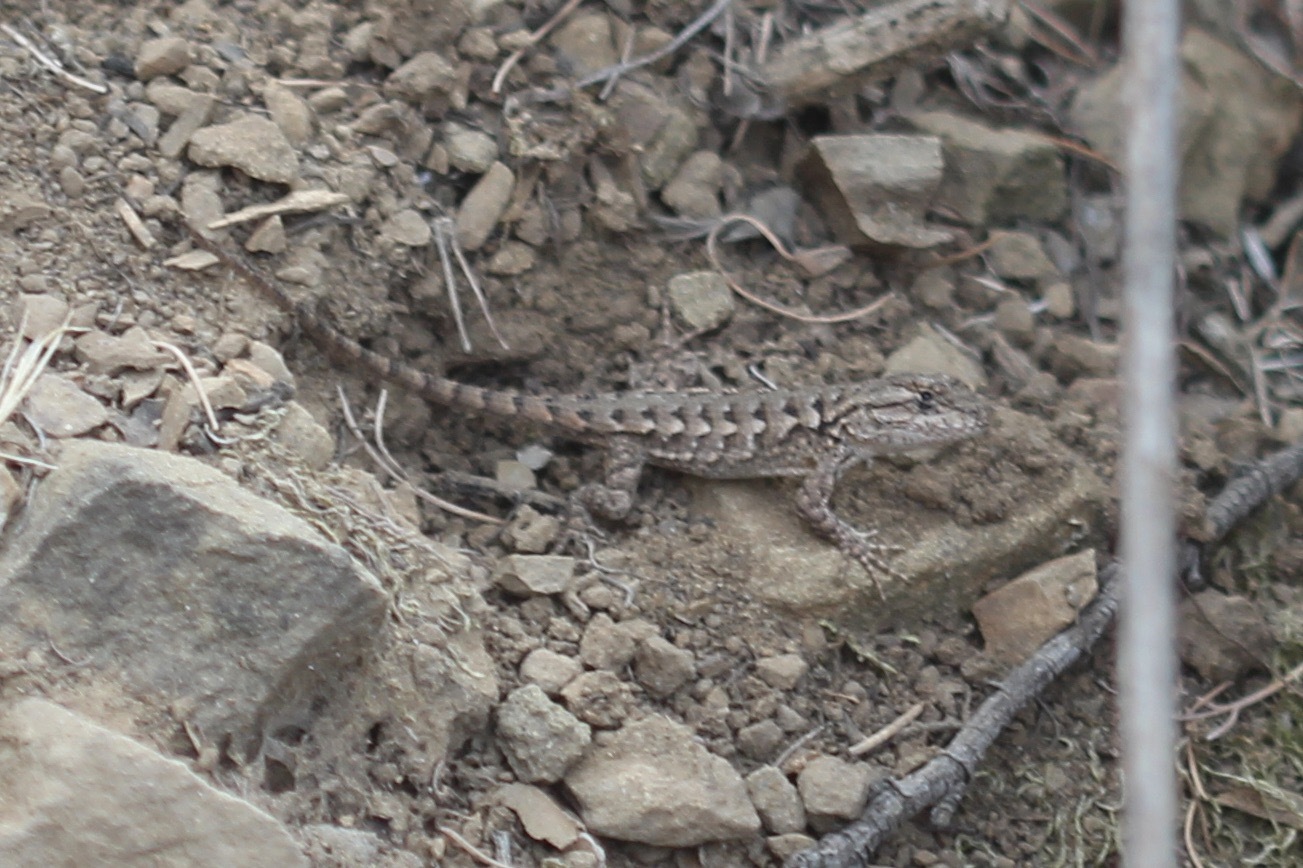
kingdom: Animalia
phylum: Chordata
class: Squamata
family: Phrynosomatidae
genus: Sceloporus
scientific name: Sceloporus occidentalis
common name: Western fence lizard
